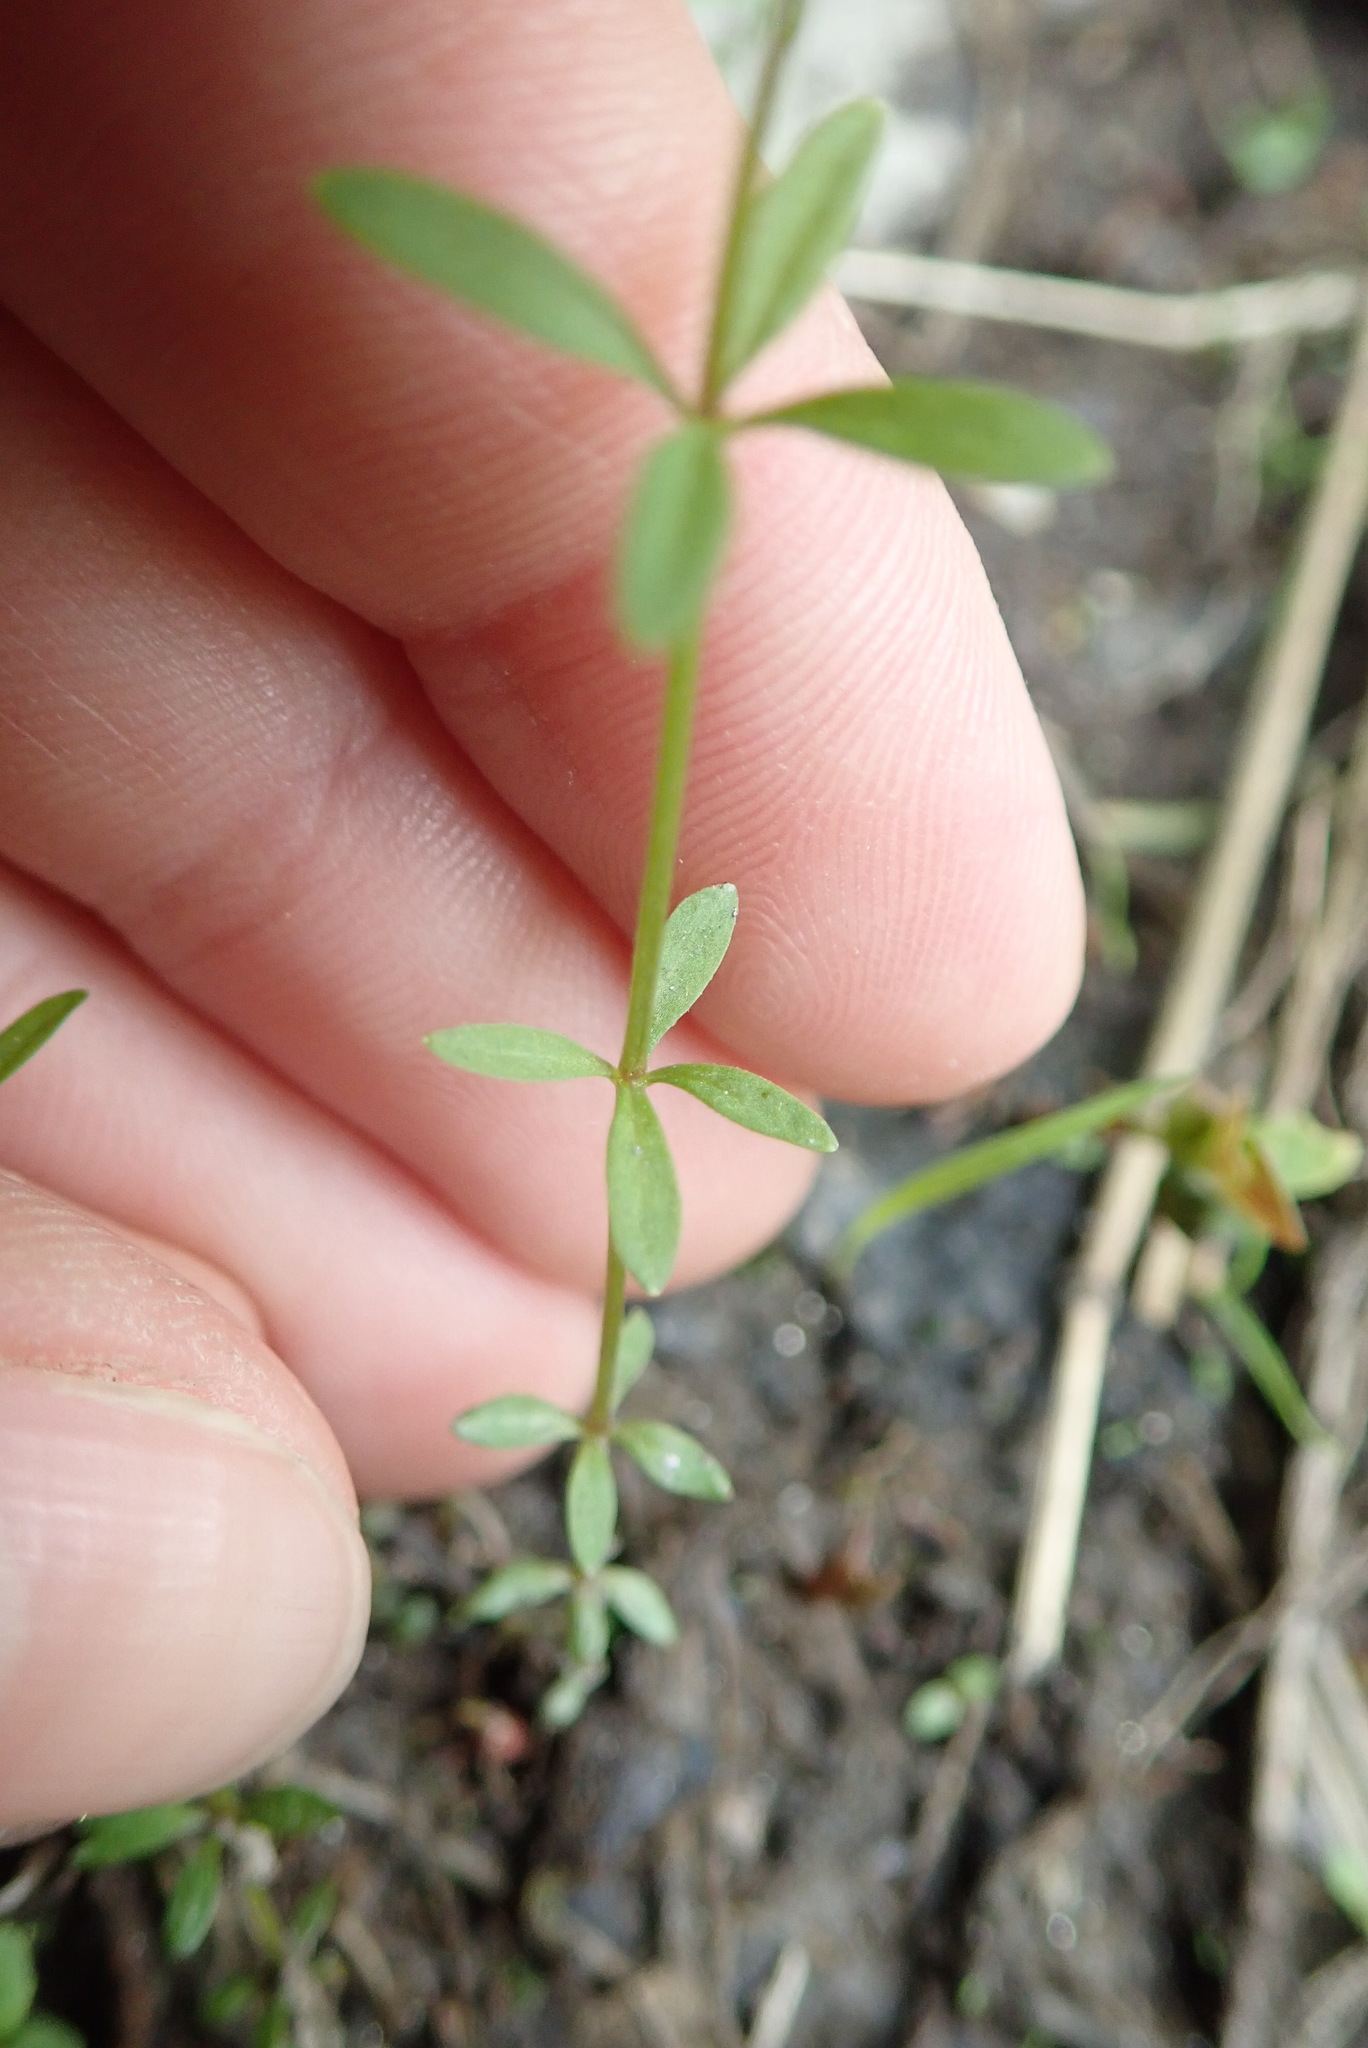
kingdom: Plantae
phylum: Tracheophyta
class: Magnoliopsida
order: Gentianales
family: Rubiaceae
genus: Galium
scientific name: Galium palustre
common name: Common marsh-bedstraw
